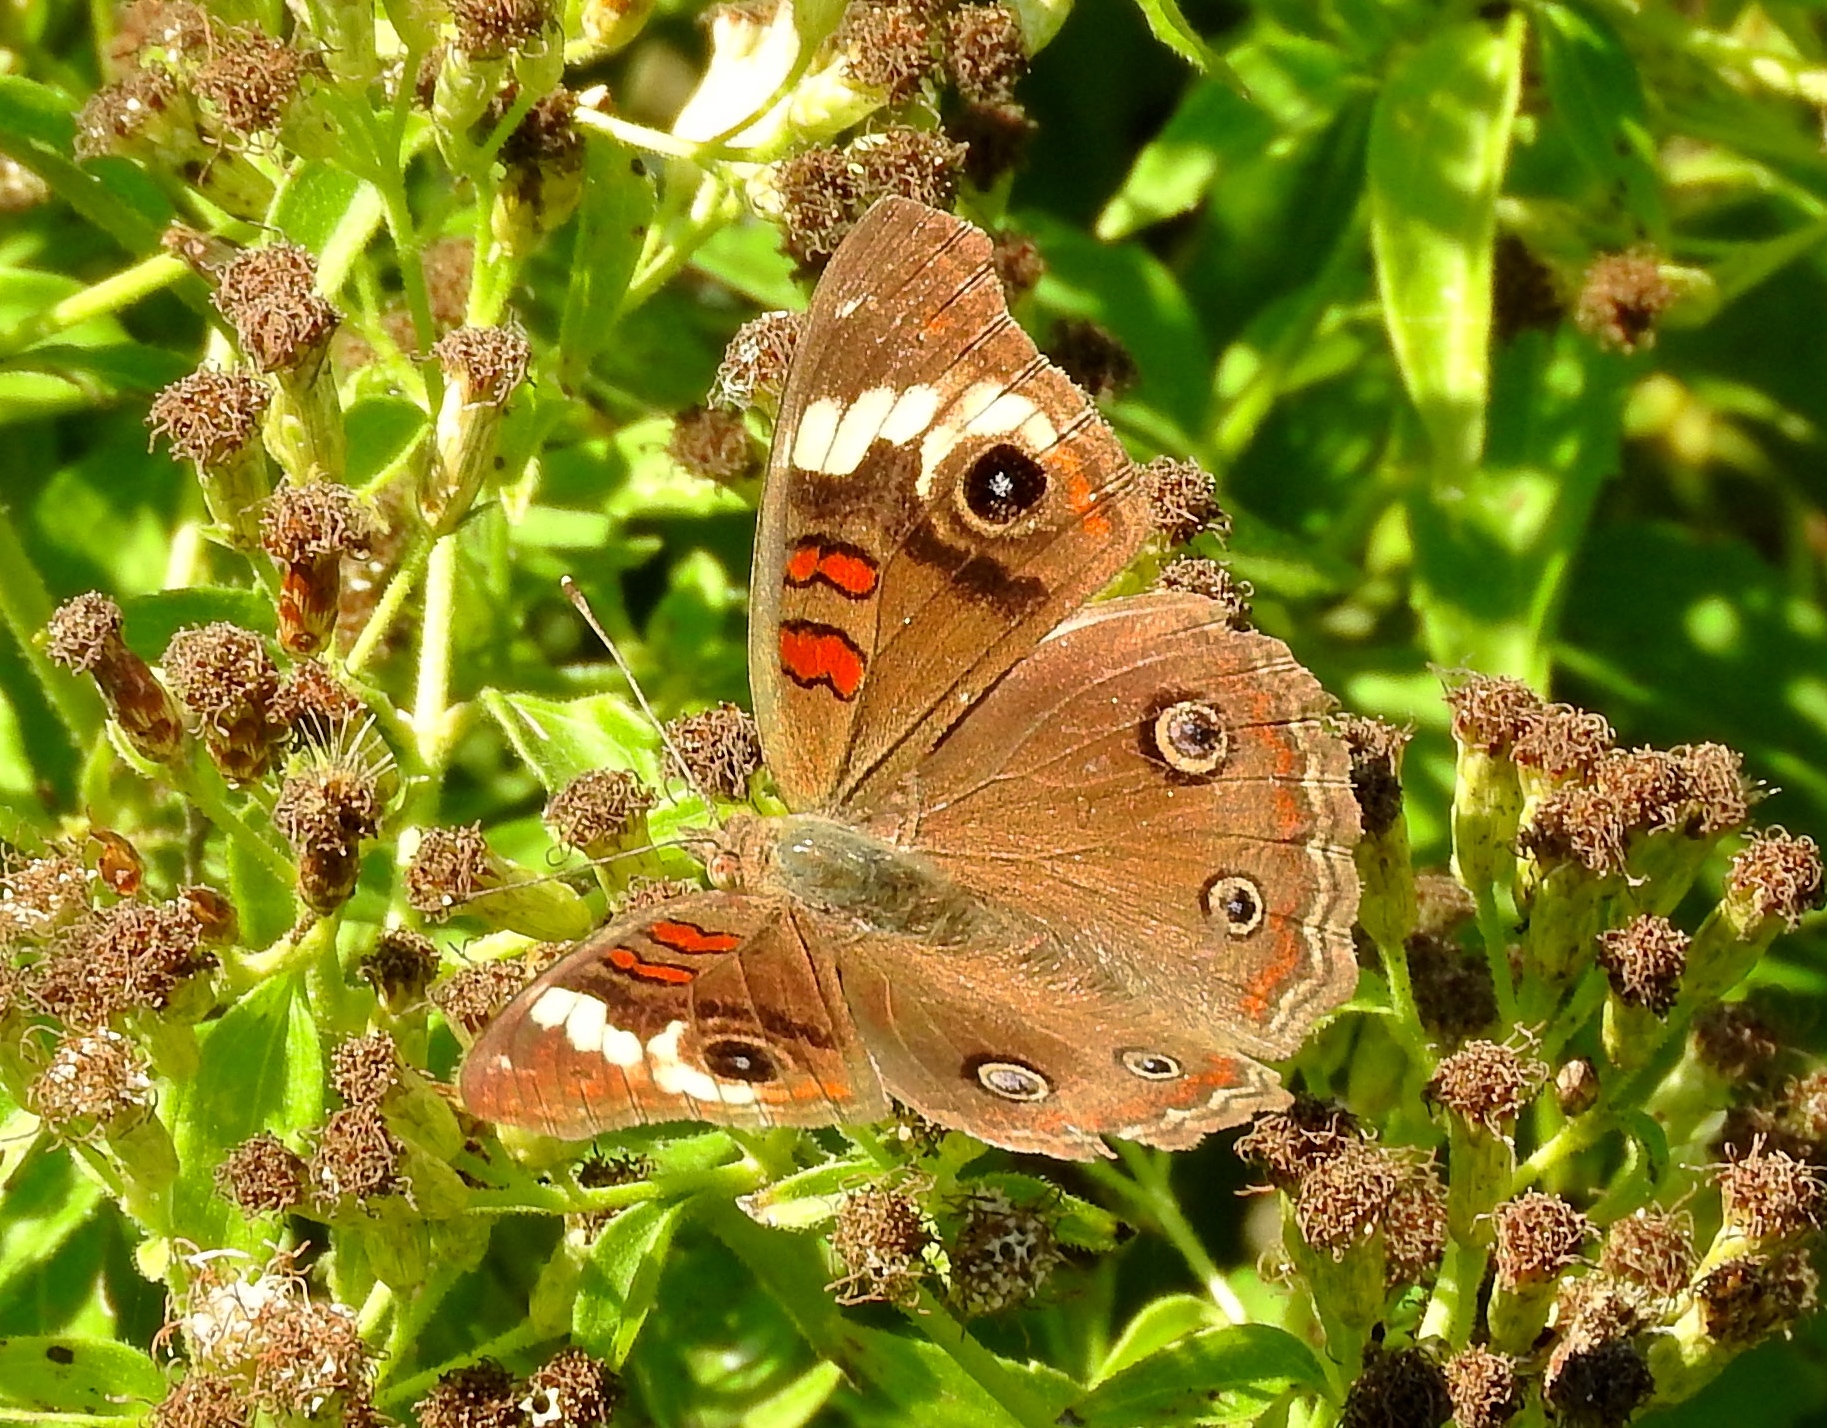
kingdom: Animalia
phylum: Arthropoda
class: Insecta
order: Lepidoptera
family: Nymphalidae
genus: Junonia
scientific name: Junonia
